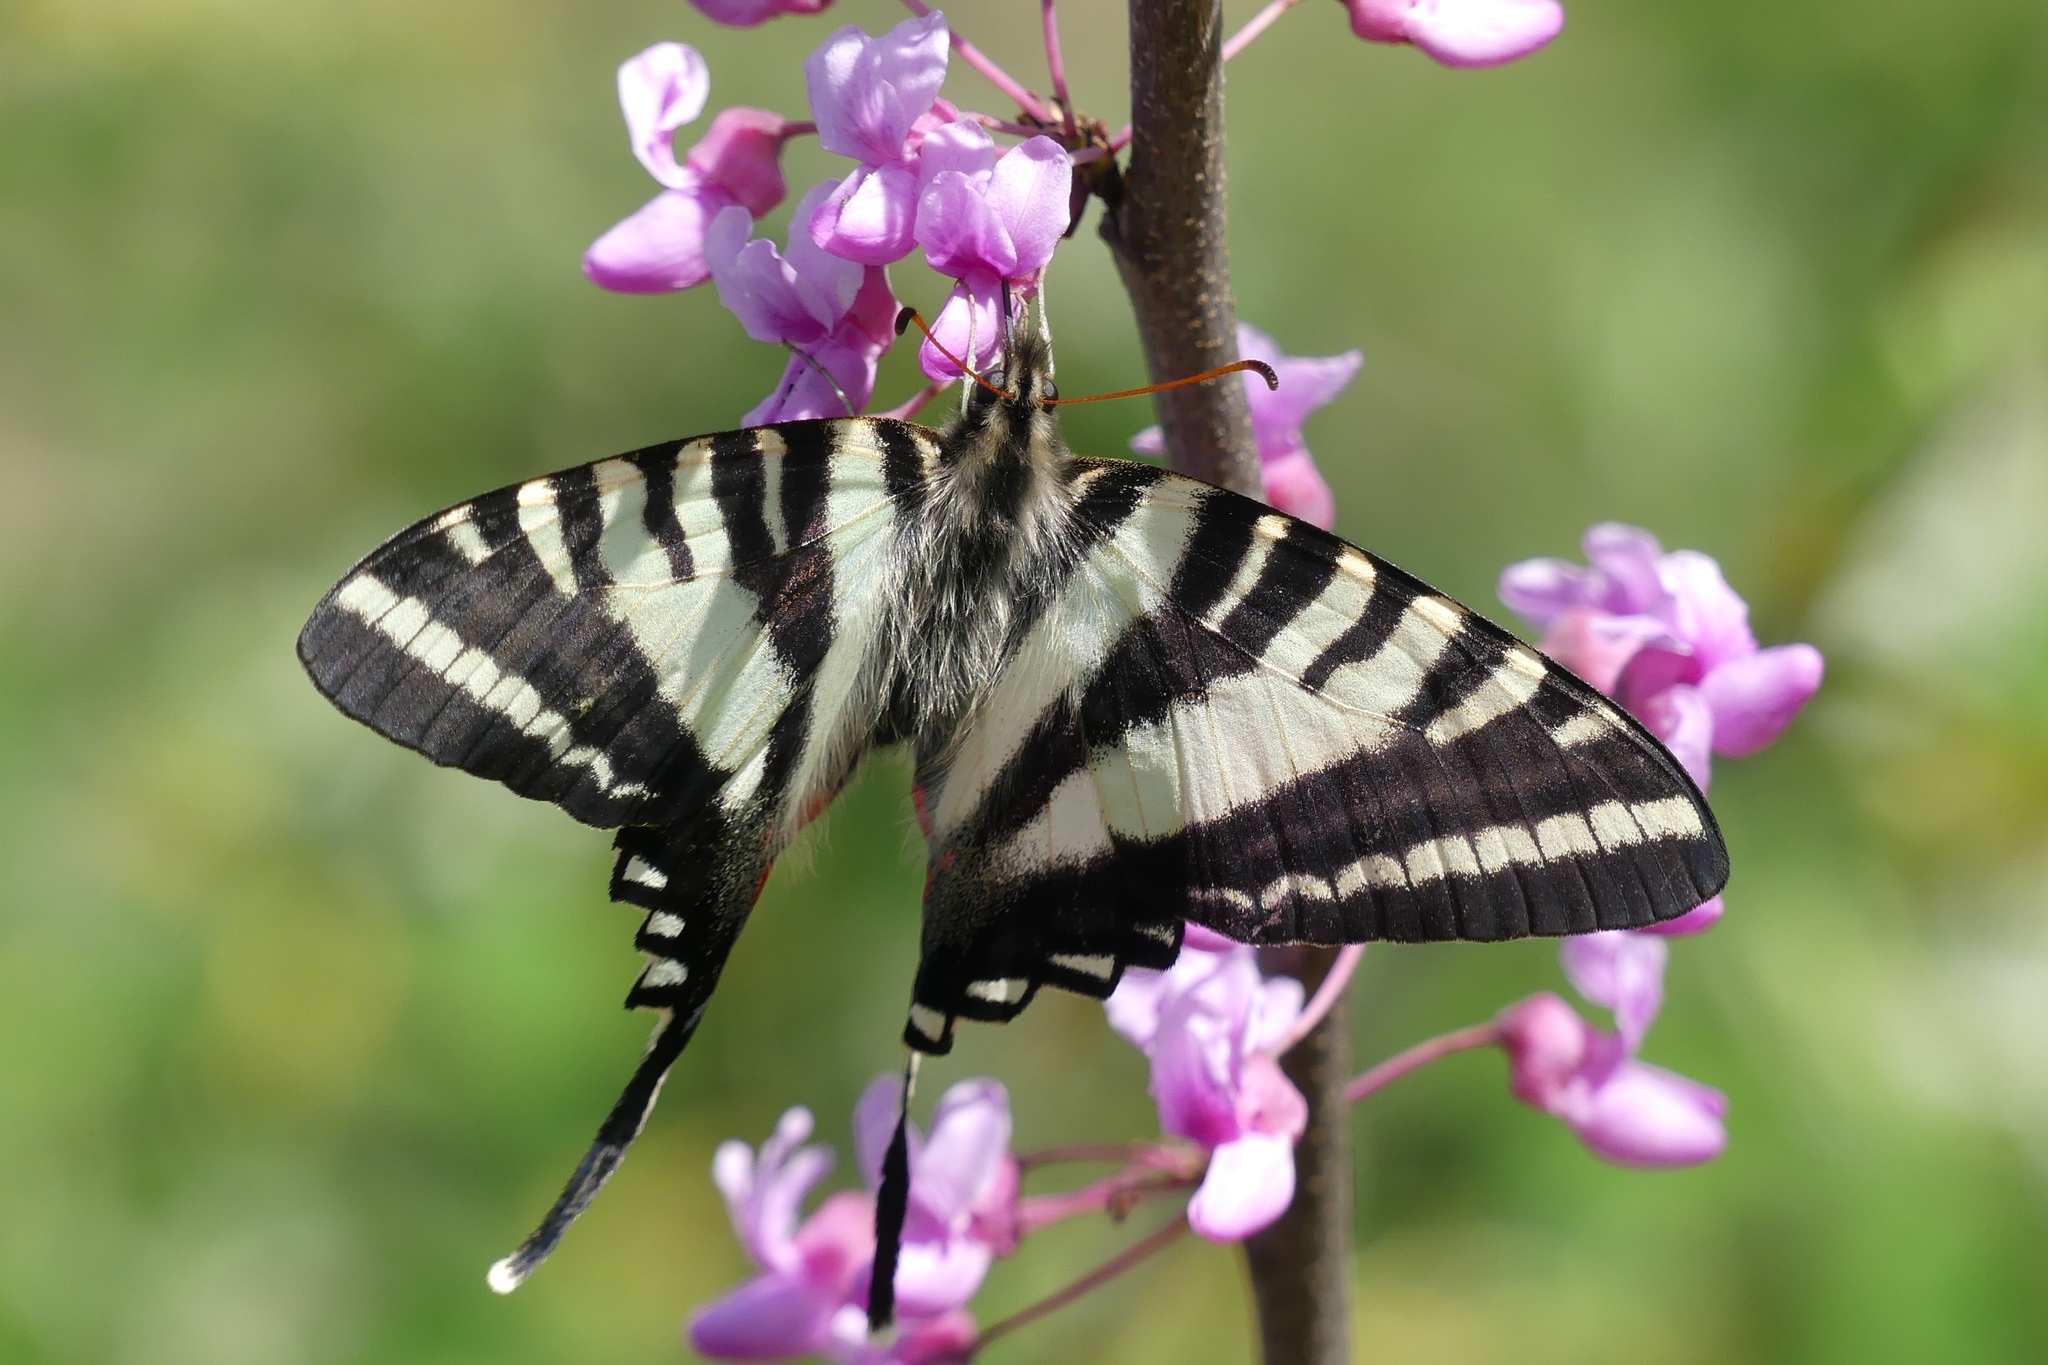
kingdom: Animalia
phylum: Arthropoda
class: Insecta
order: Lepidoptera
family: Papilionidae
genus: Protographium
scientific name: Protographium marcellus
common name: Zebra swallowtail
